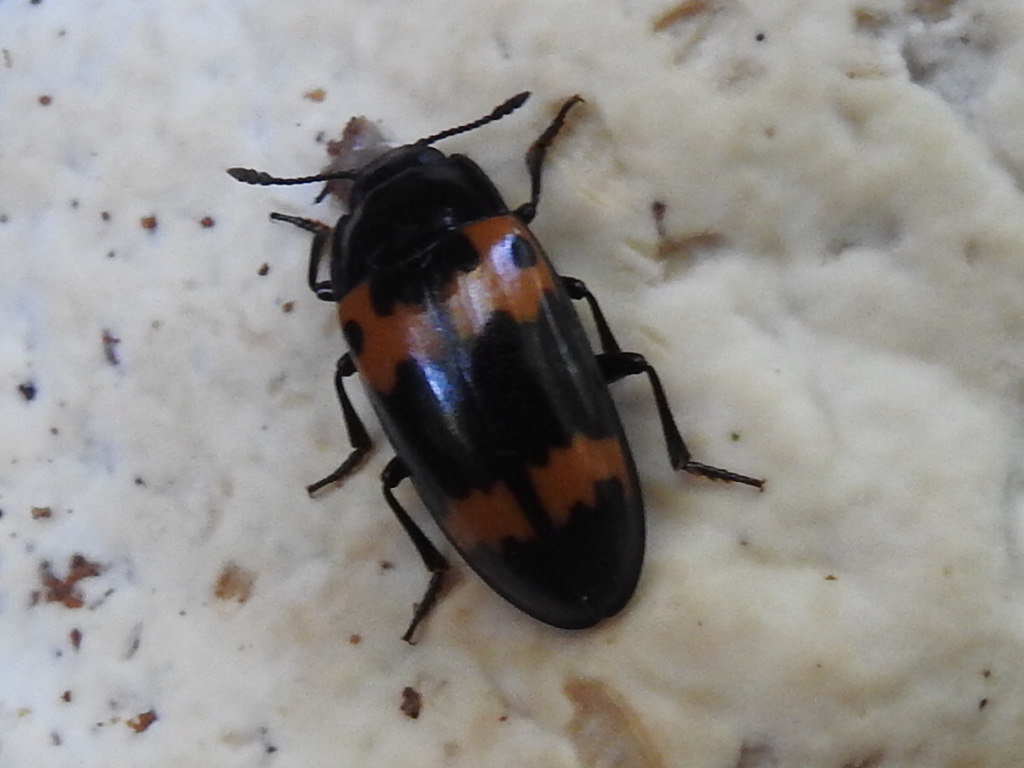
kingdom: Animalia
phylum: Arthropoda
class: Insecta
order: Coleoptera
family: Erotylidae
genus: Megalodacne
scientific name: Megalodacne fasciata
